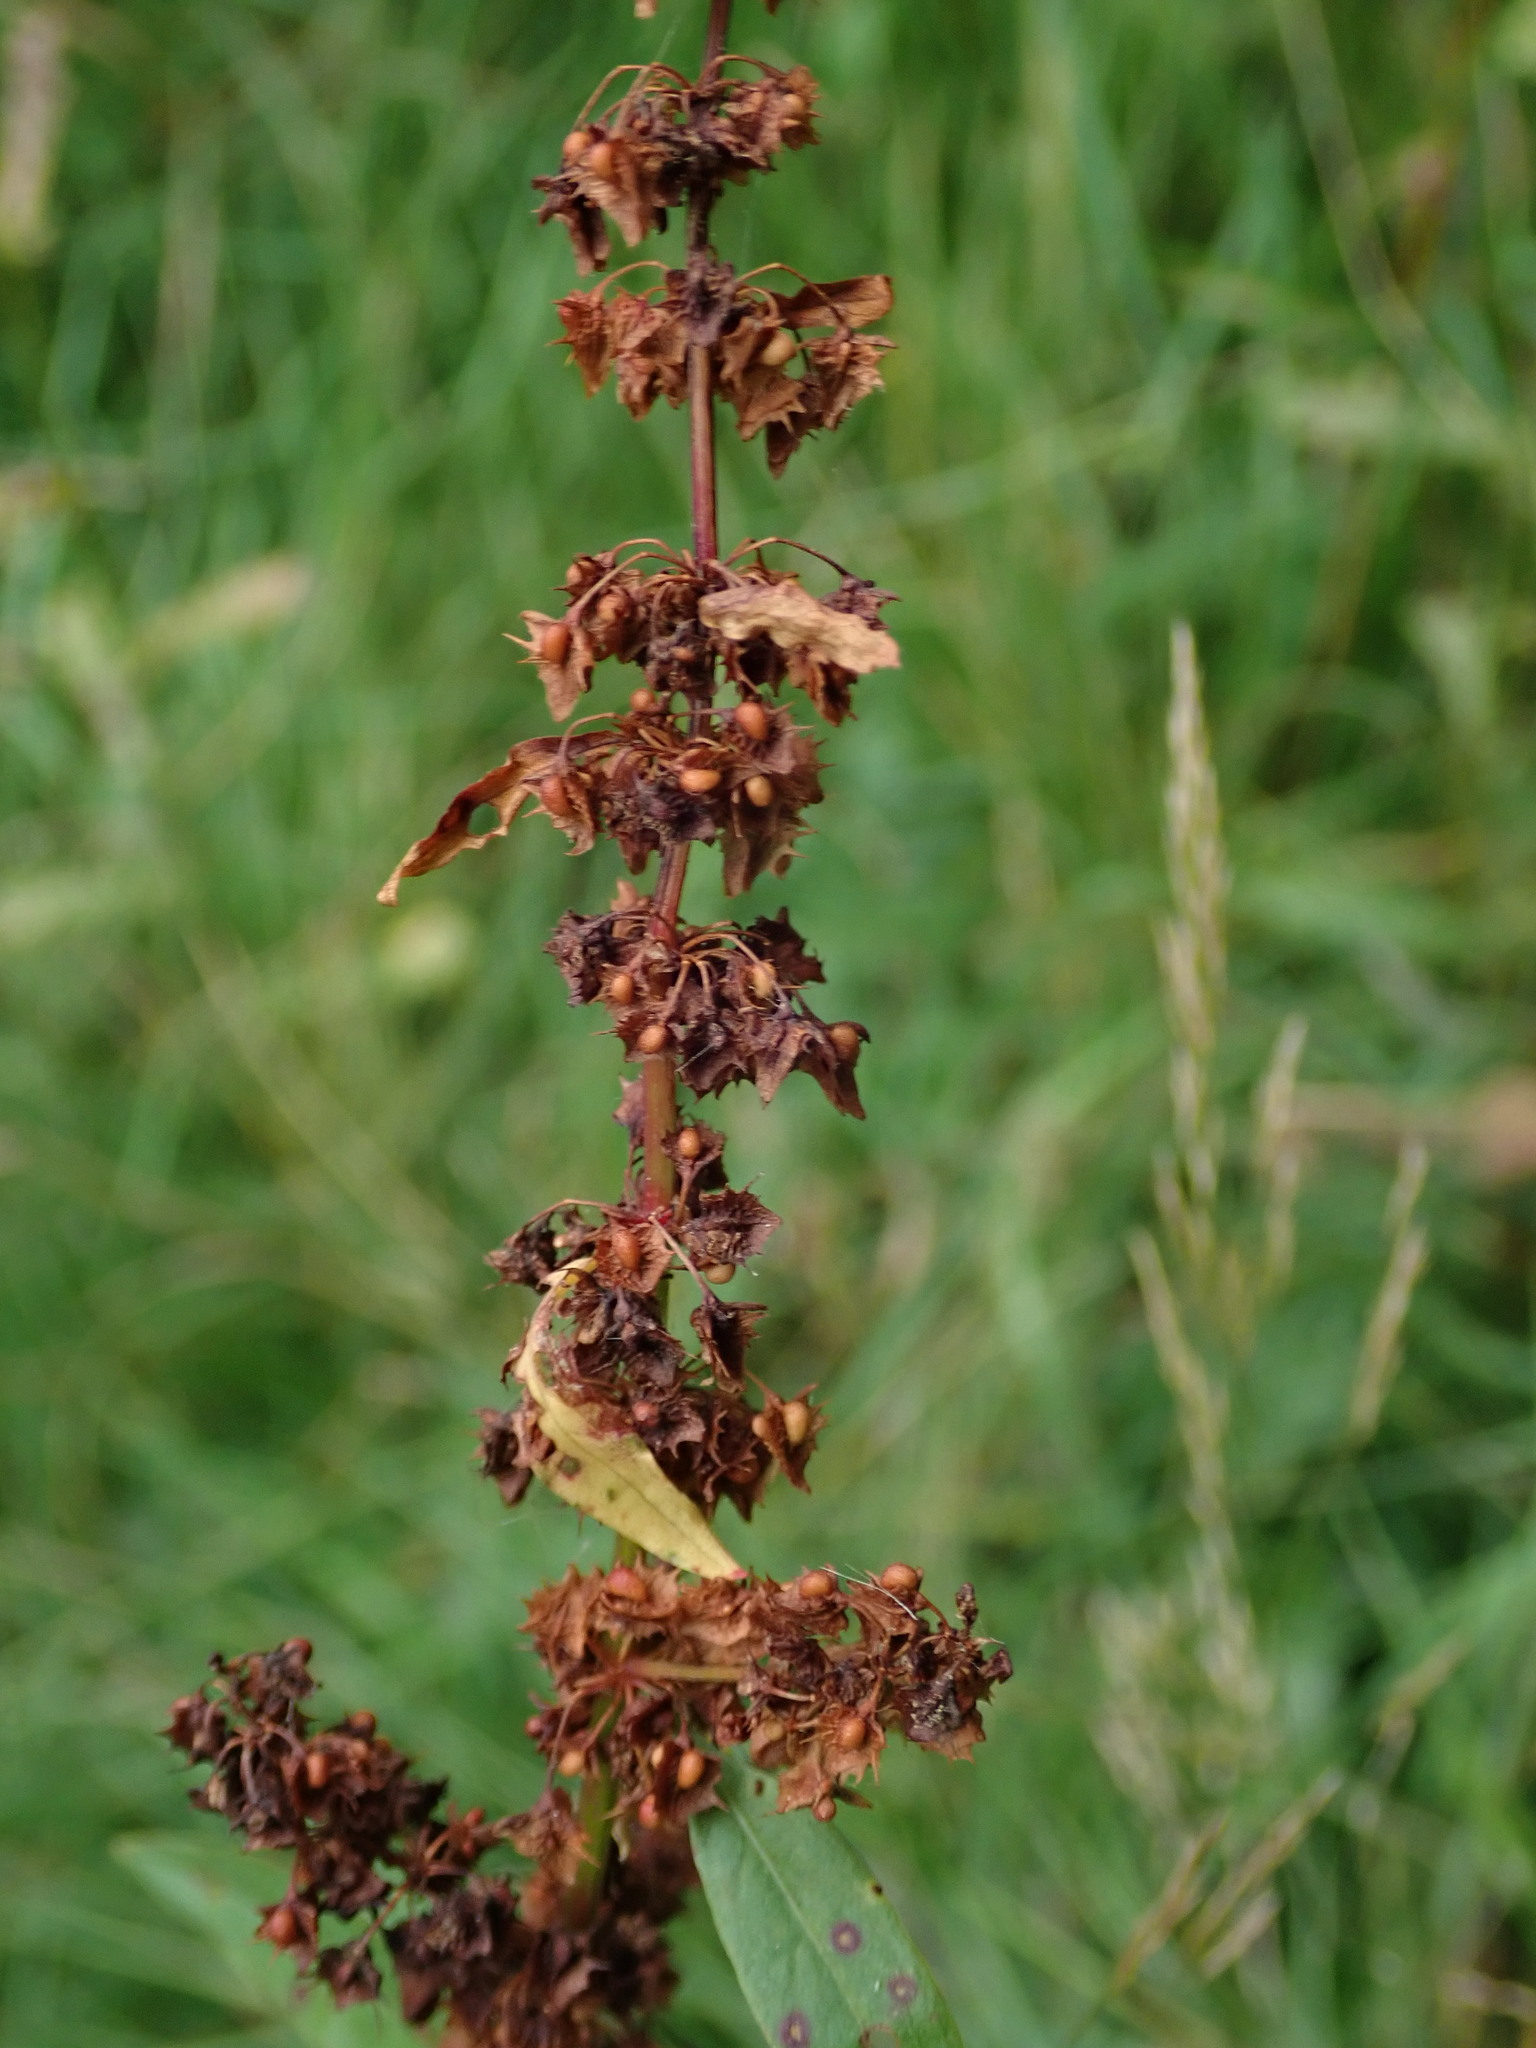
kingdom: Plantae
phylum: Tracheophyta
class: Magnoliopsida
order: Caryophyllales
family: Polygonaceae
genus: Rumex
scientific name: Rumex obtusifolius
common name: Bitter dock
